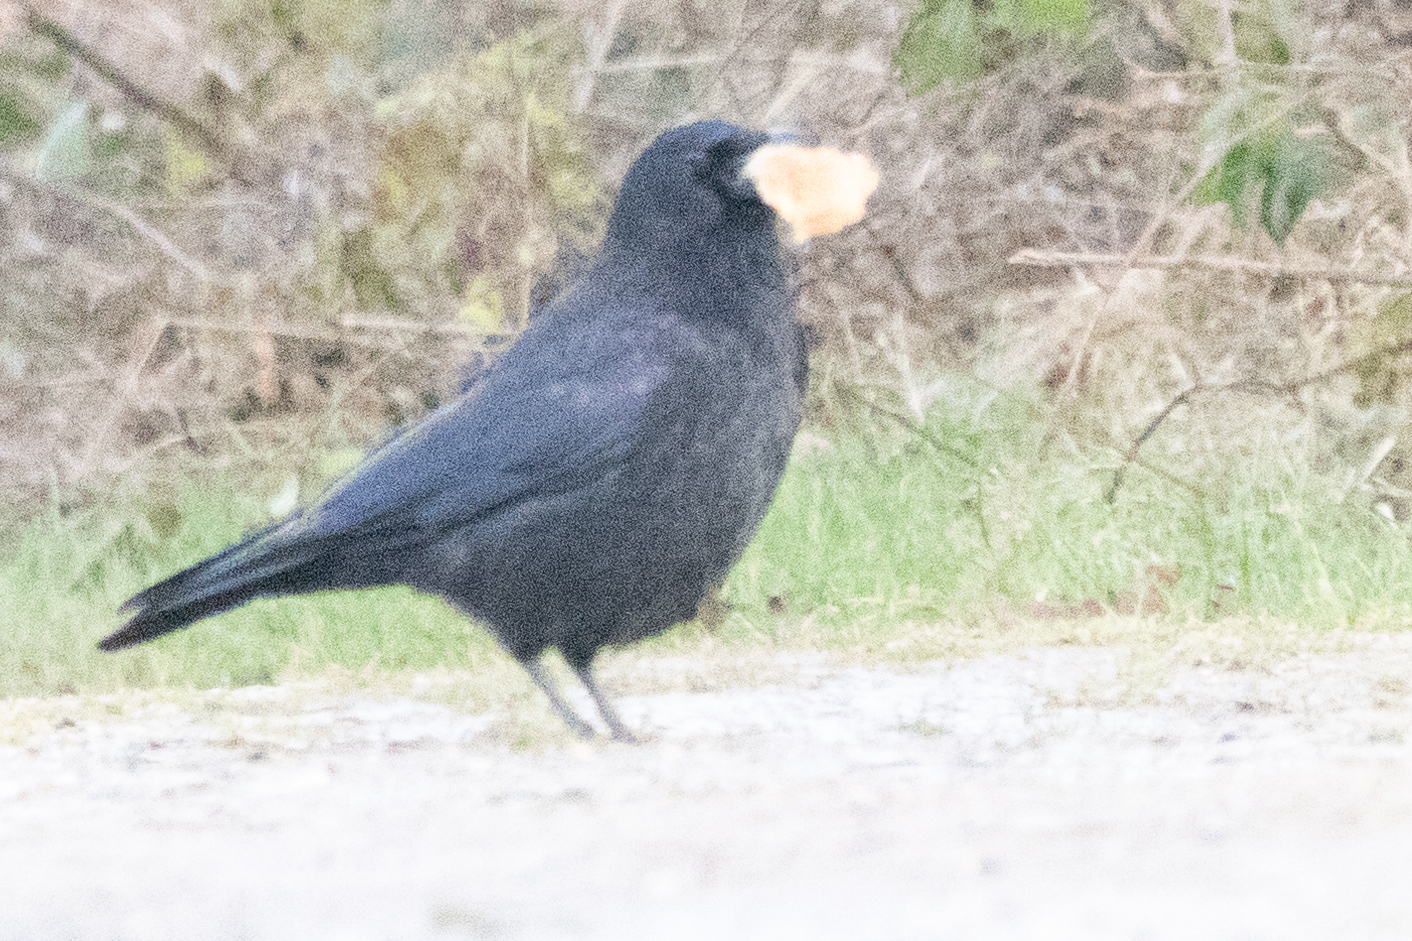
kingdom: Animalia
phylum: Chordata
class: Aves
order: Passeriformes
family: Corvidae
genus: Corvus
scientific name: Corvus corone
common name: Carrion crow
